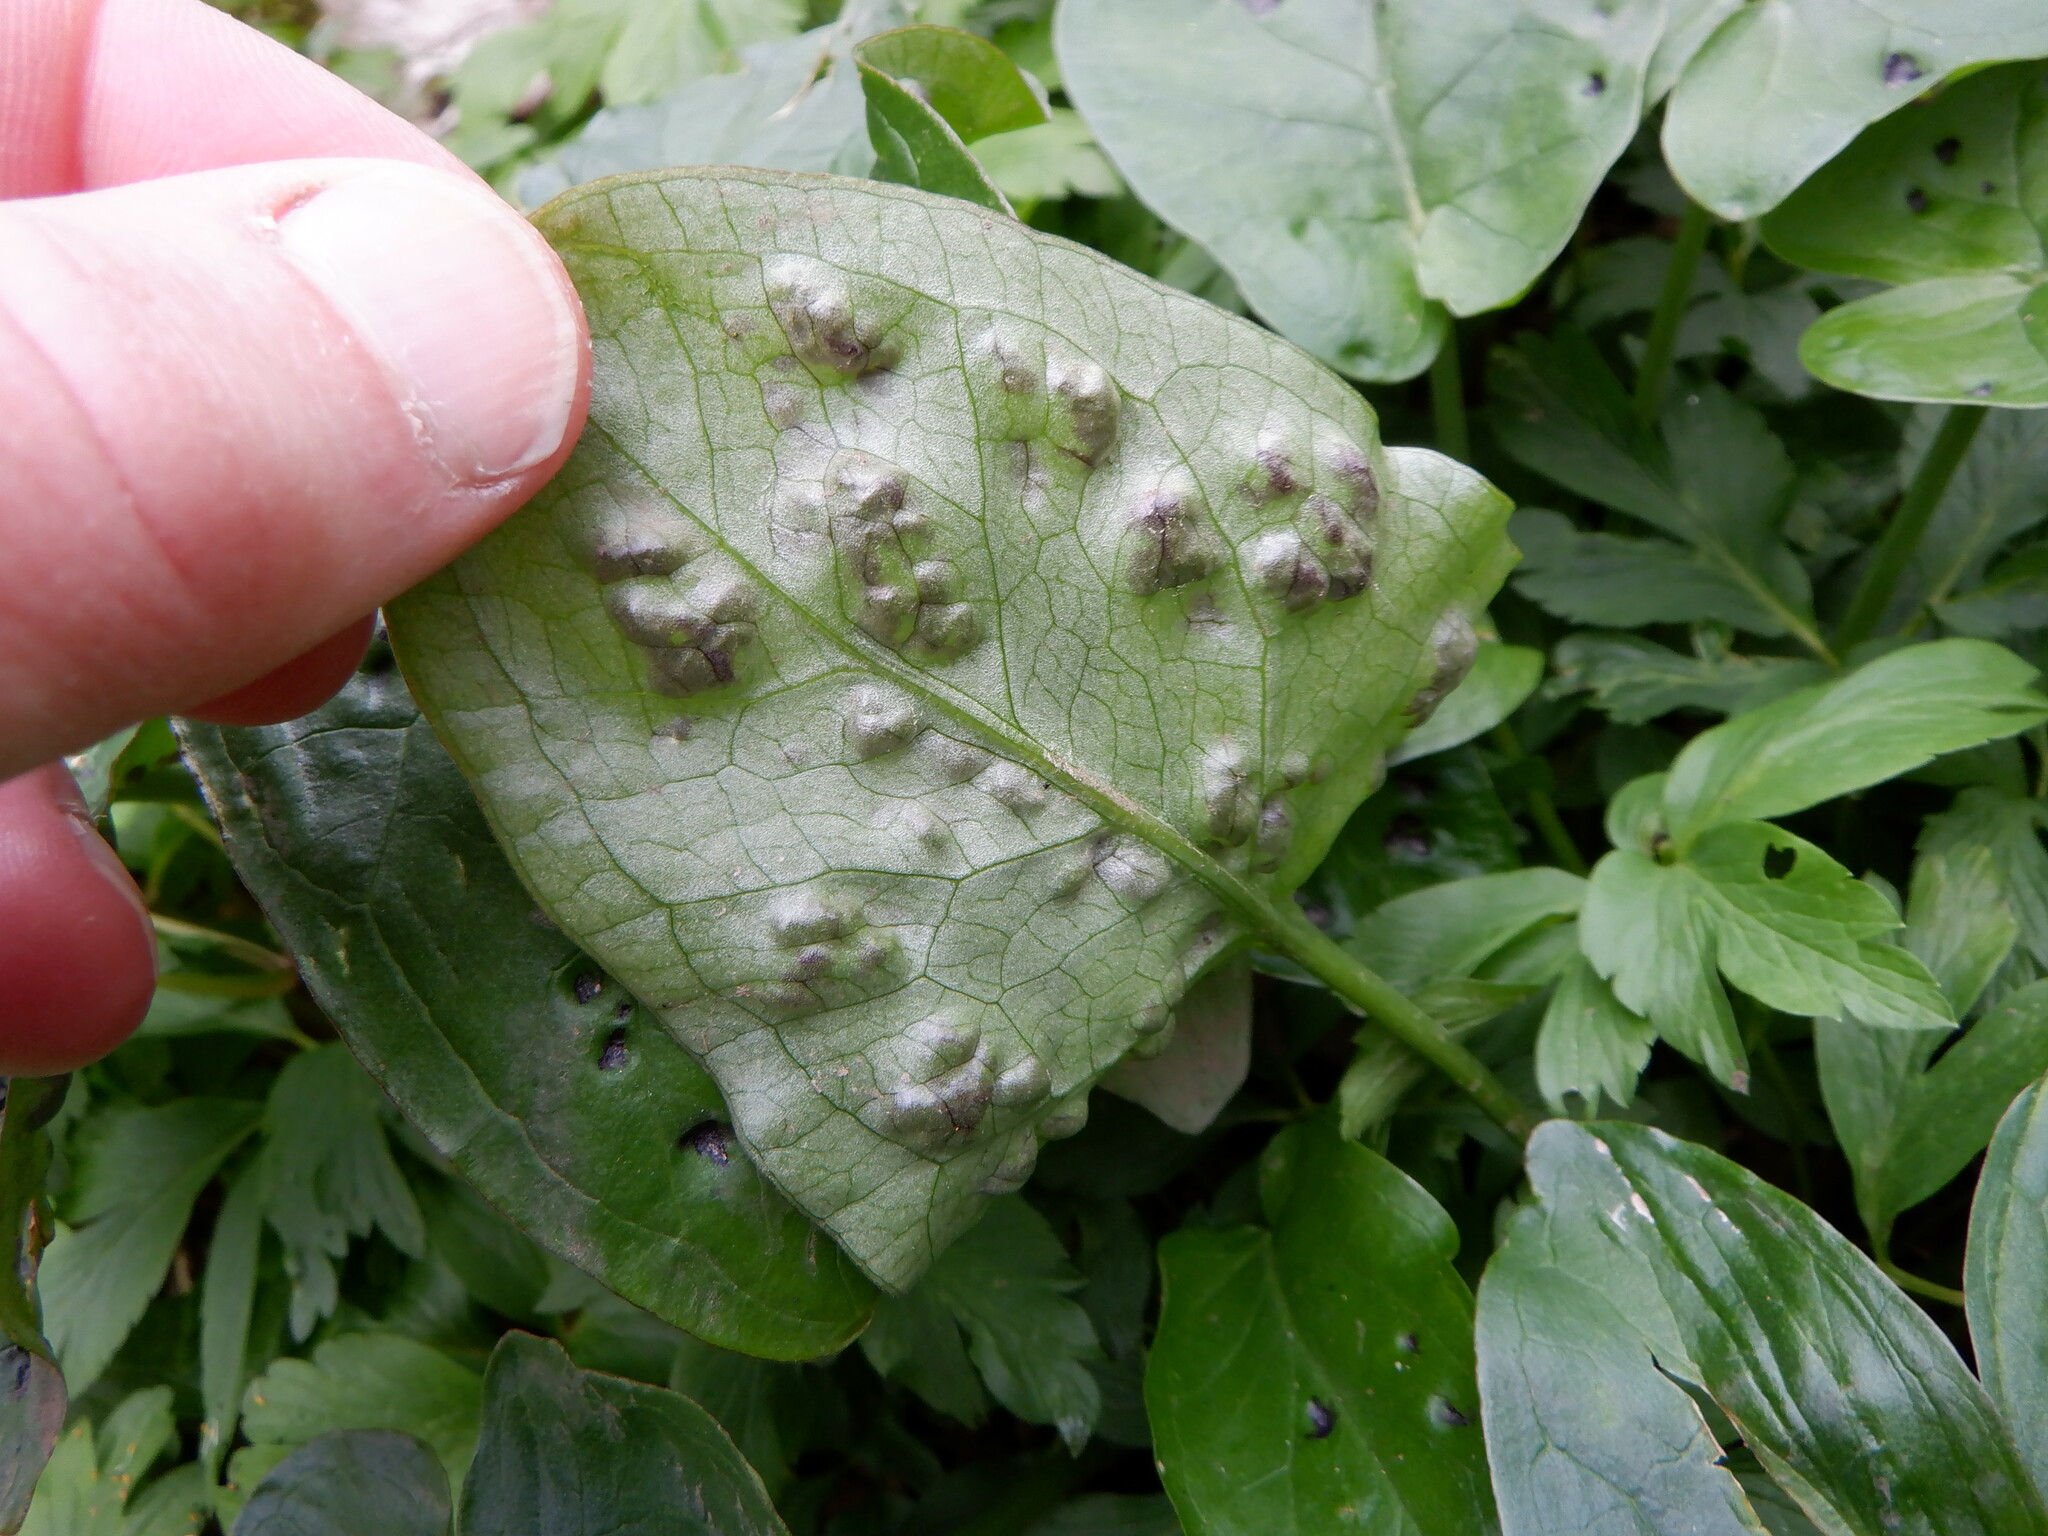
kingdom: Plantae
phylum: Tracheophyta
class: Liliopsida
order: Alismatales
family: Araceae
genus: Arum
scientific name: Arum maculatum
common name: Lords-and-ladies
